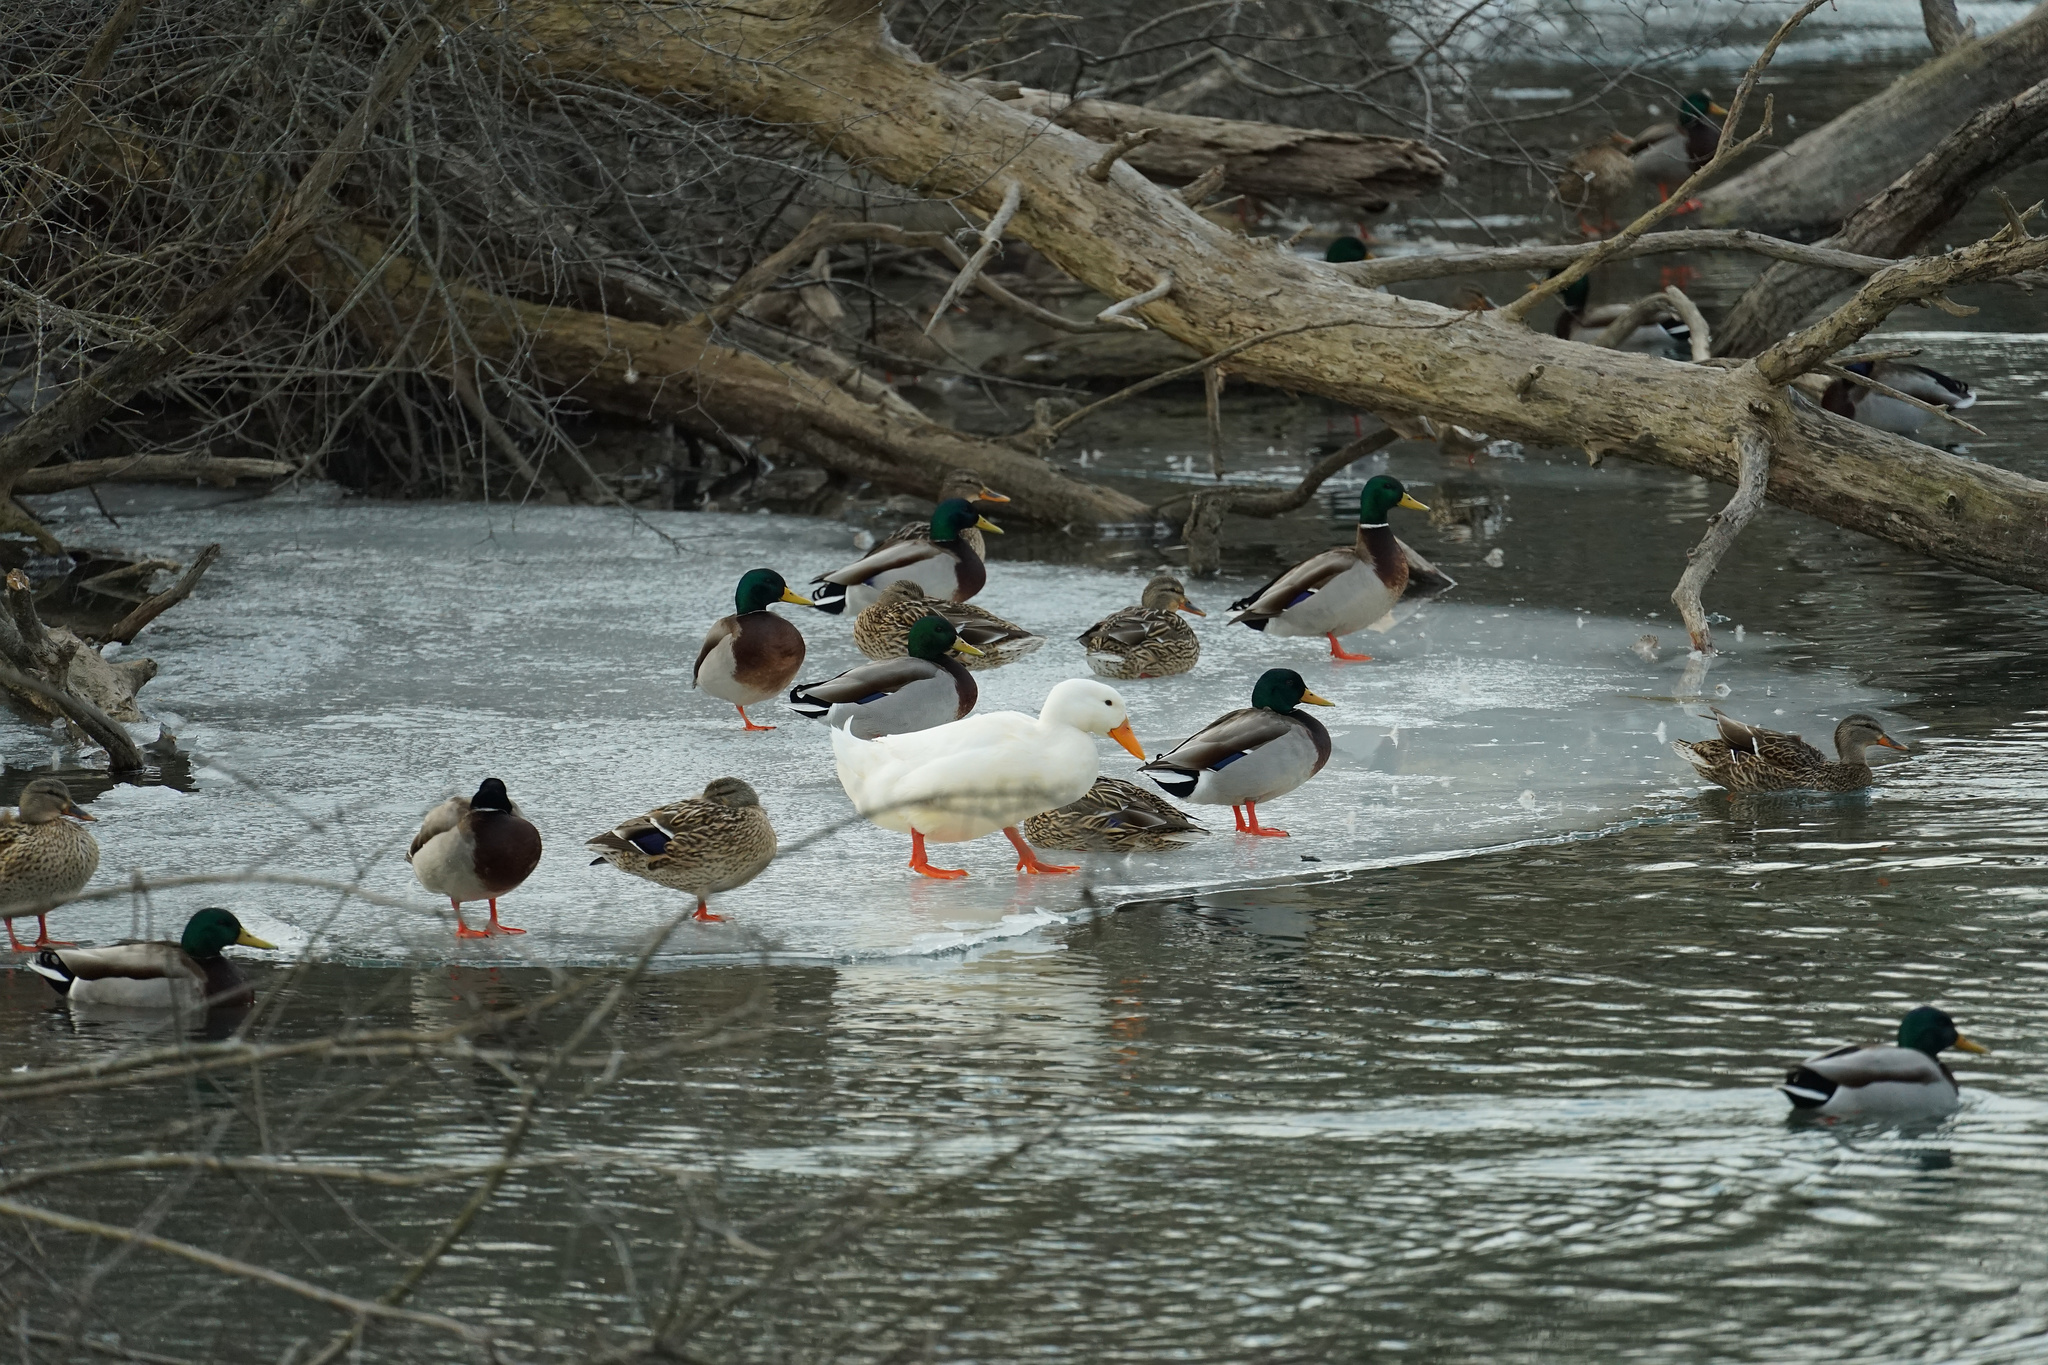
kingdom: Animalia
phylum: Chordata
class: Aves
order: Anseriformes
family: Anatidae
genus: Anas
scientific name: Anas platyrhynchos
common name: Mallard
